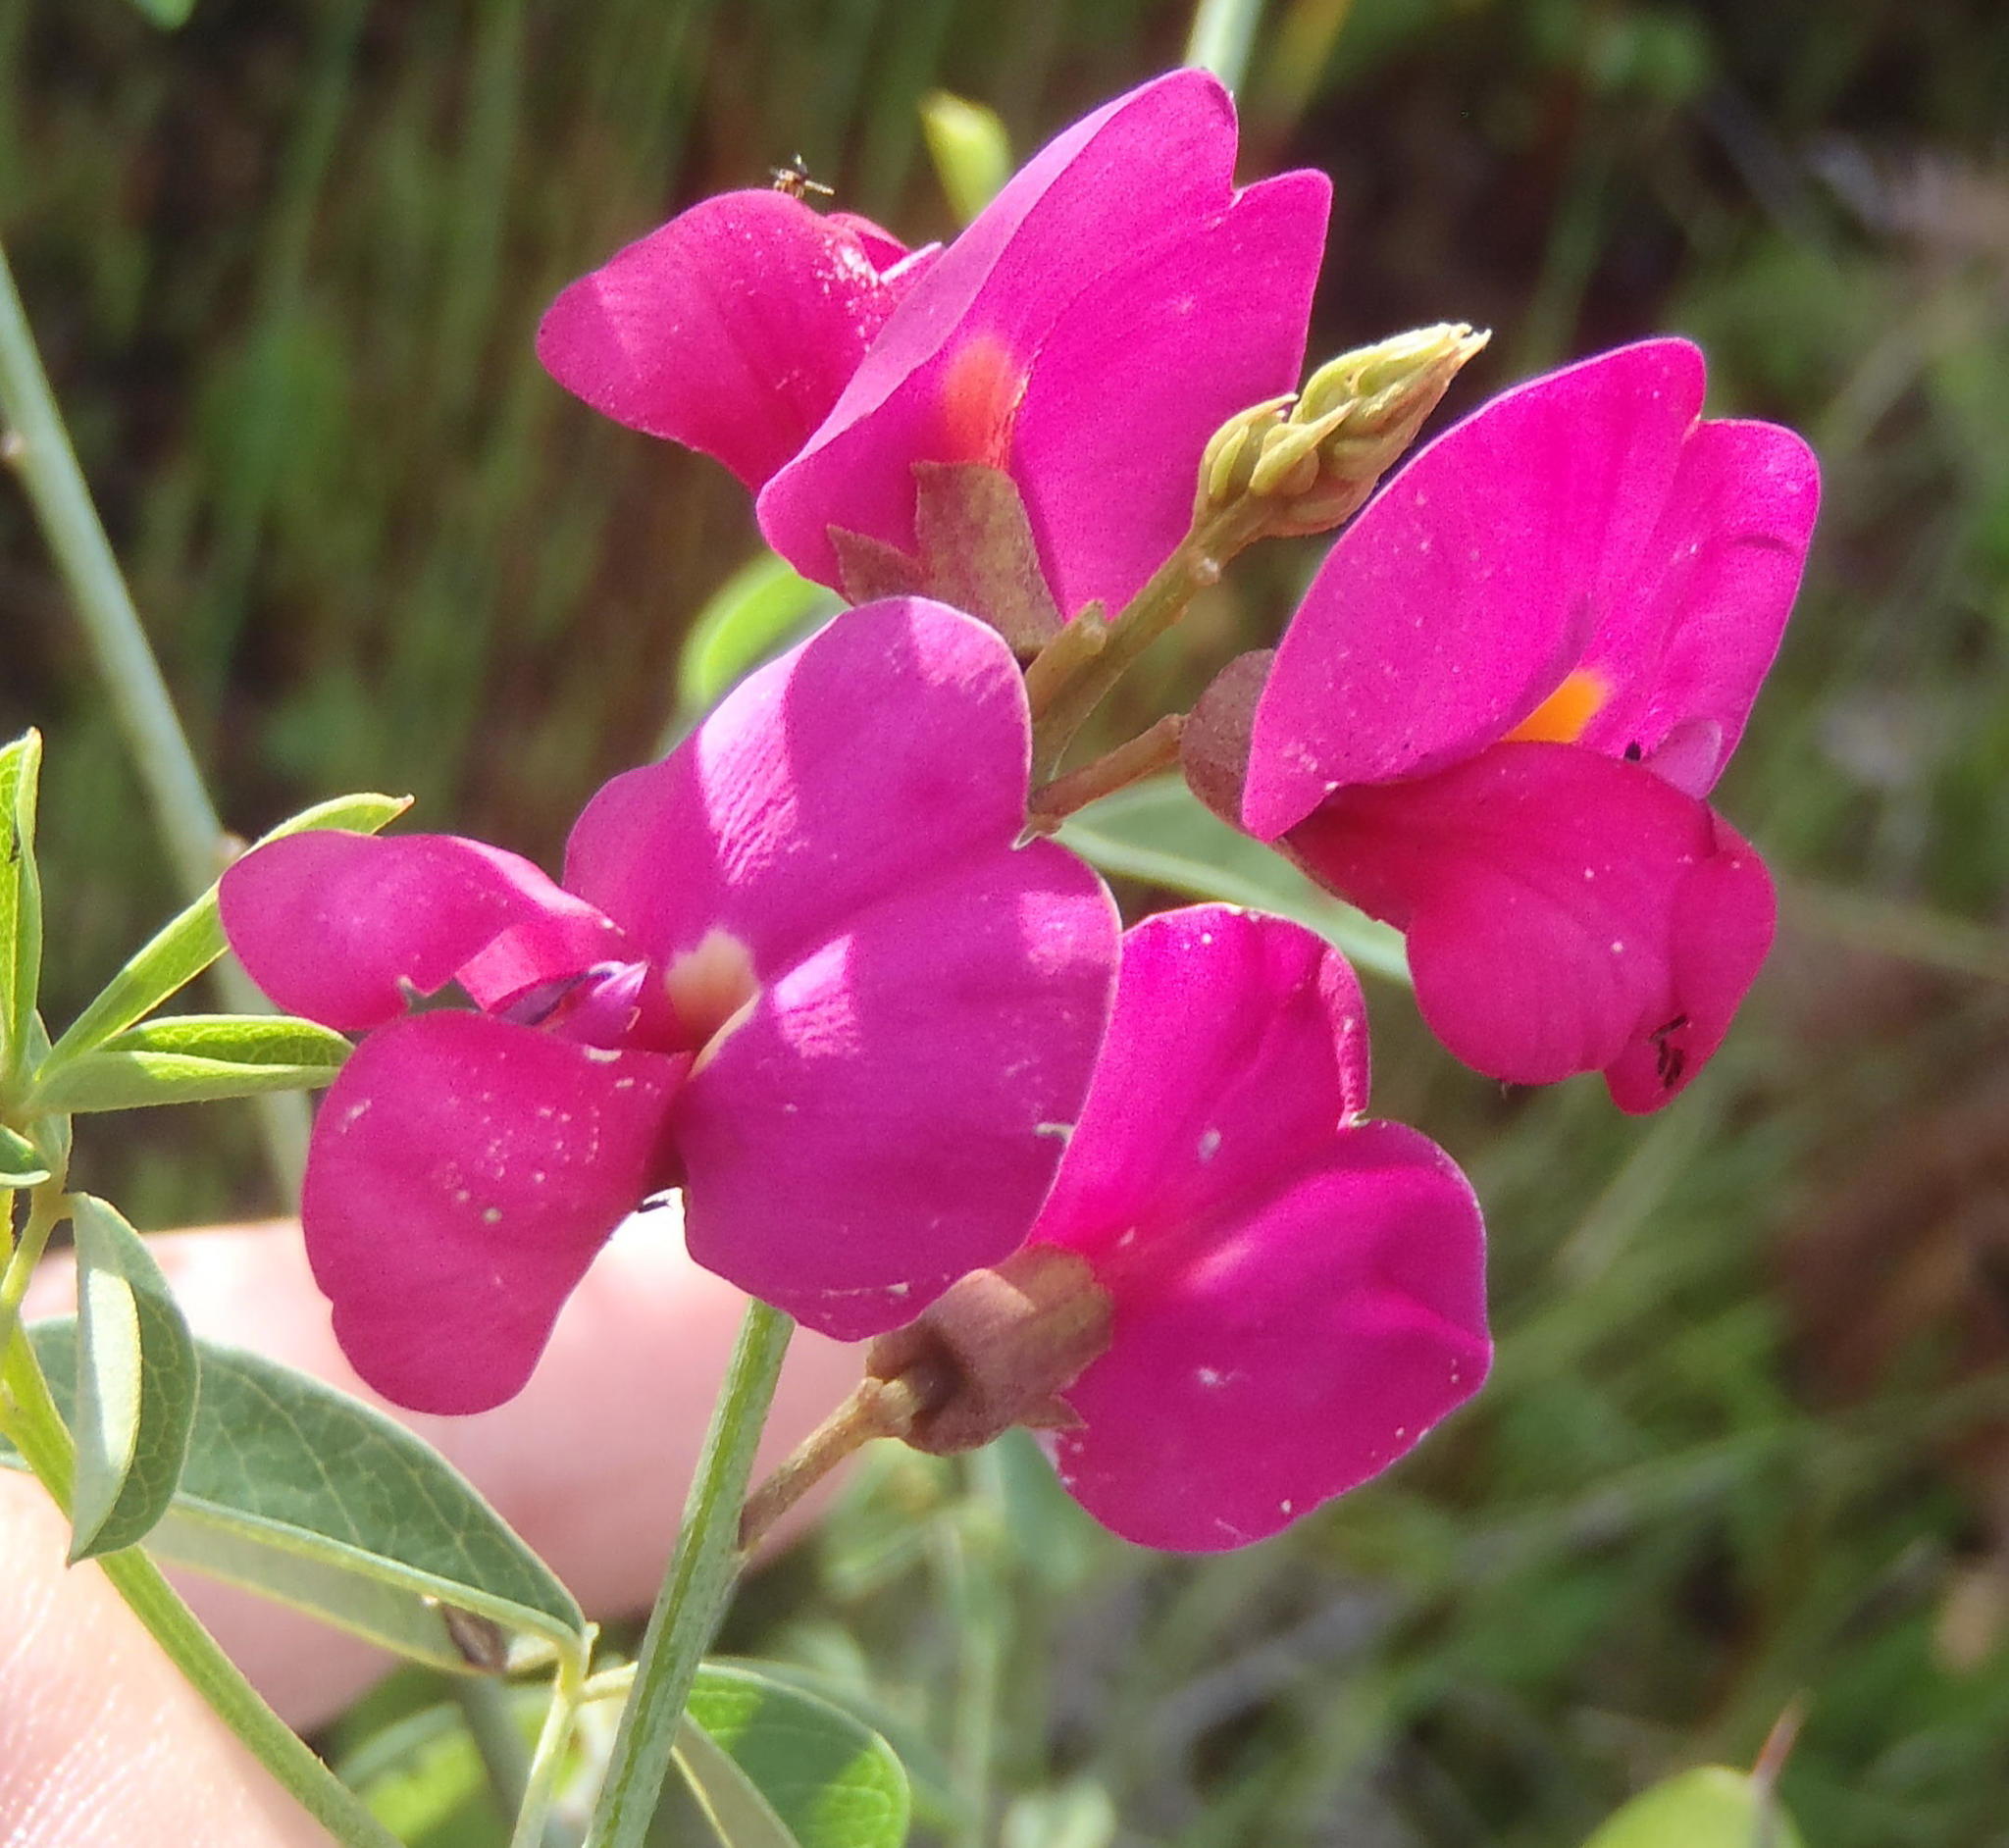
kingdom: Plantae
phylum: Tracheophyta
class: Magnoliopsida
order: Fabales
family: Fabaceae
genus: Hypocalyptus
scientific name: Hypocalyptus coluteoides
